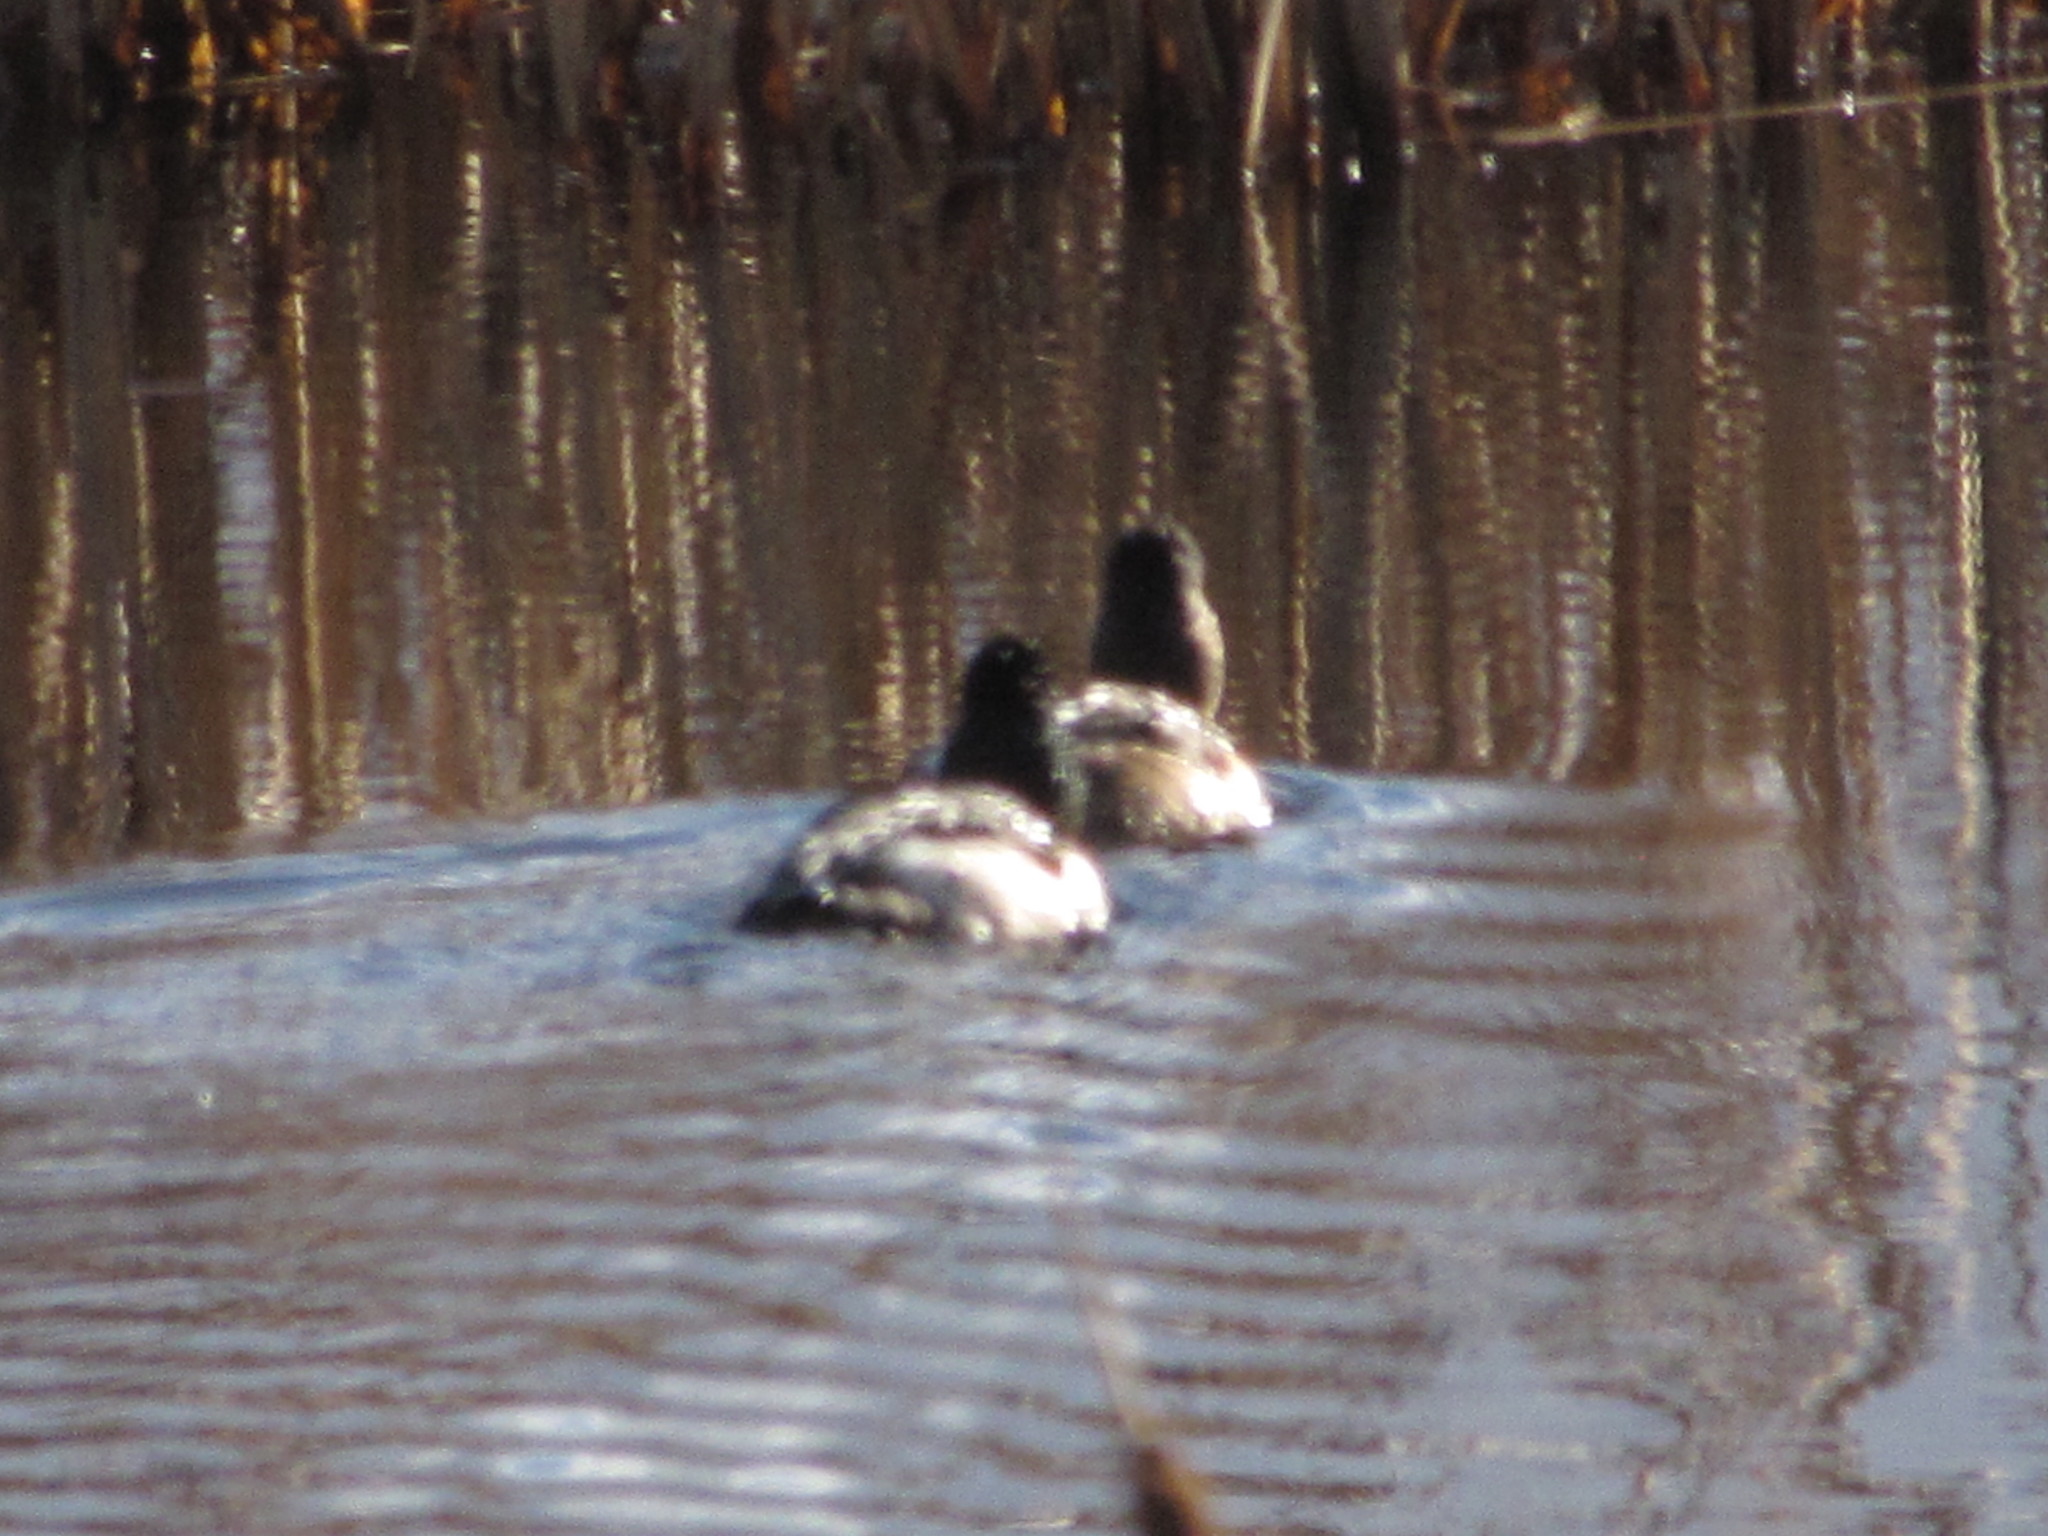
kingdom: Animalia
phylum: Chordata
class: Aves
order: Anseriformes
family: Anatidae
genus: Aythya
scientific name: Aythya collaris
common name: Ring-necked duck
